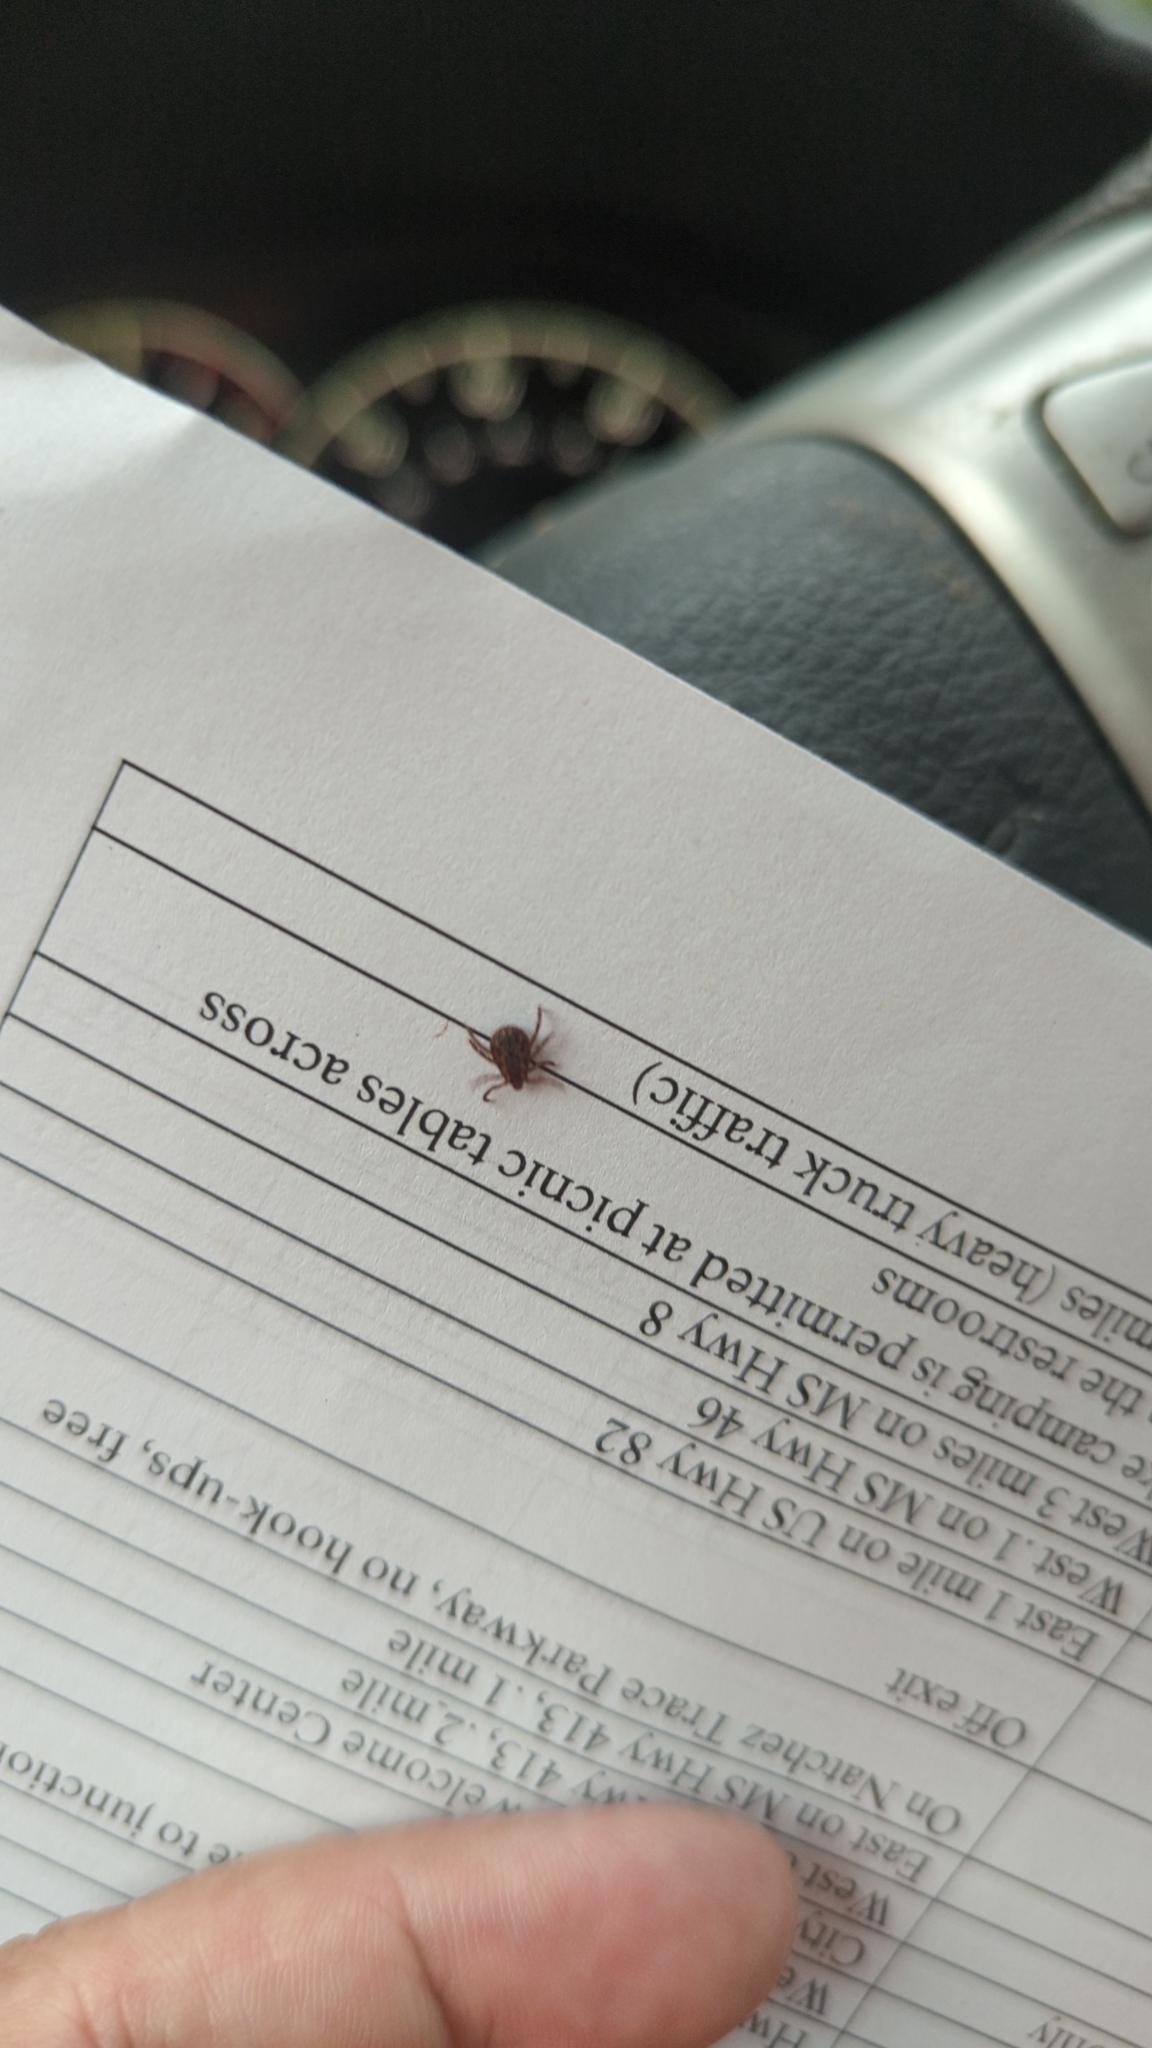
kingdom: Animalia
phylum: Arthropoda
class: Arachnida
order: Ixodida
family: Ixodidae
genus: Dermacentor
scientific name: Dermacentor variabilis
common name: American dog tick
